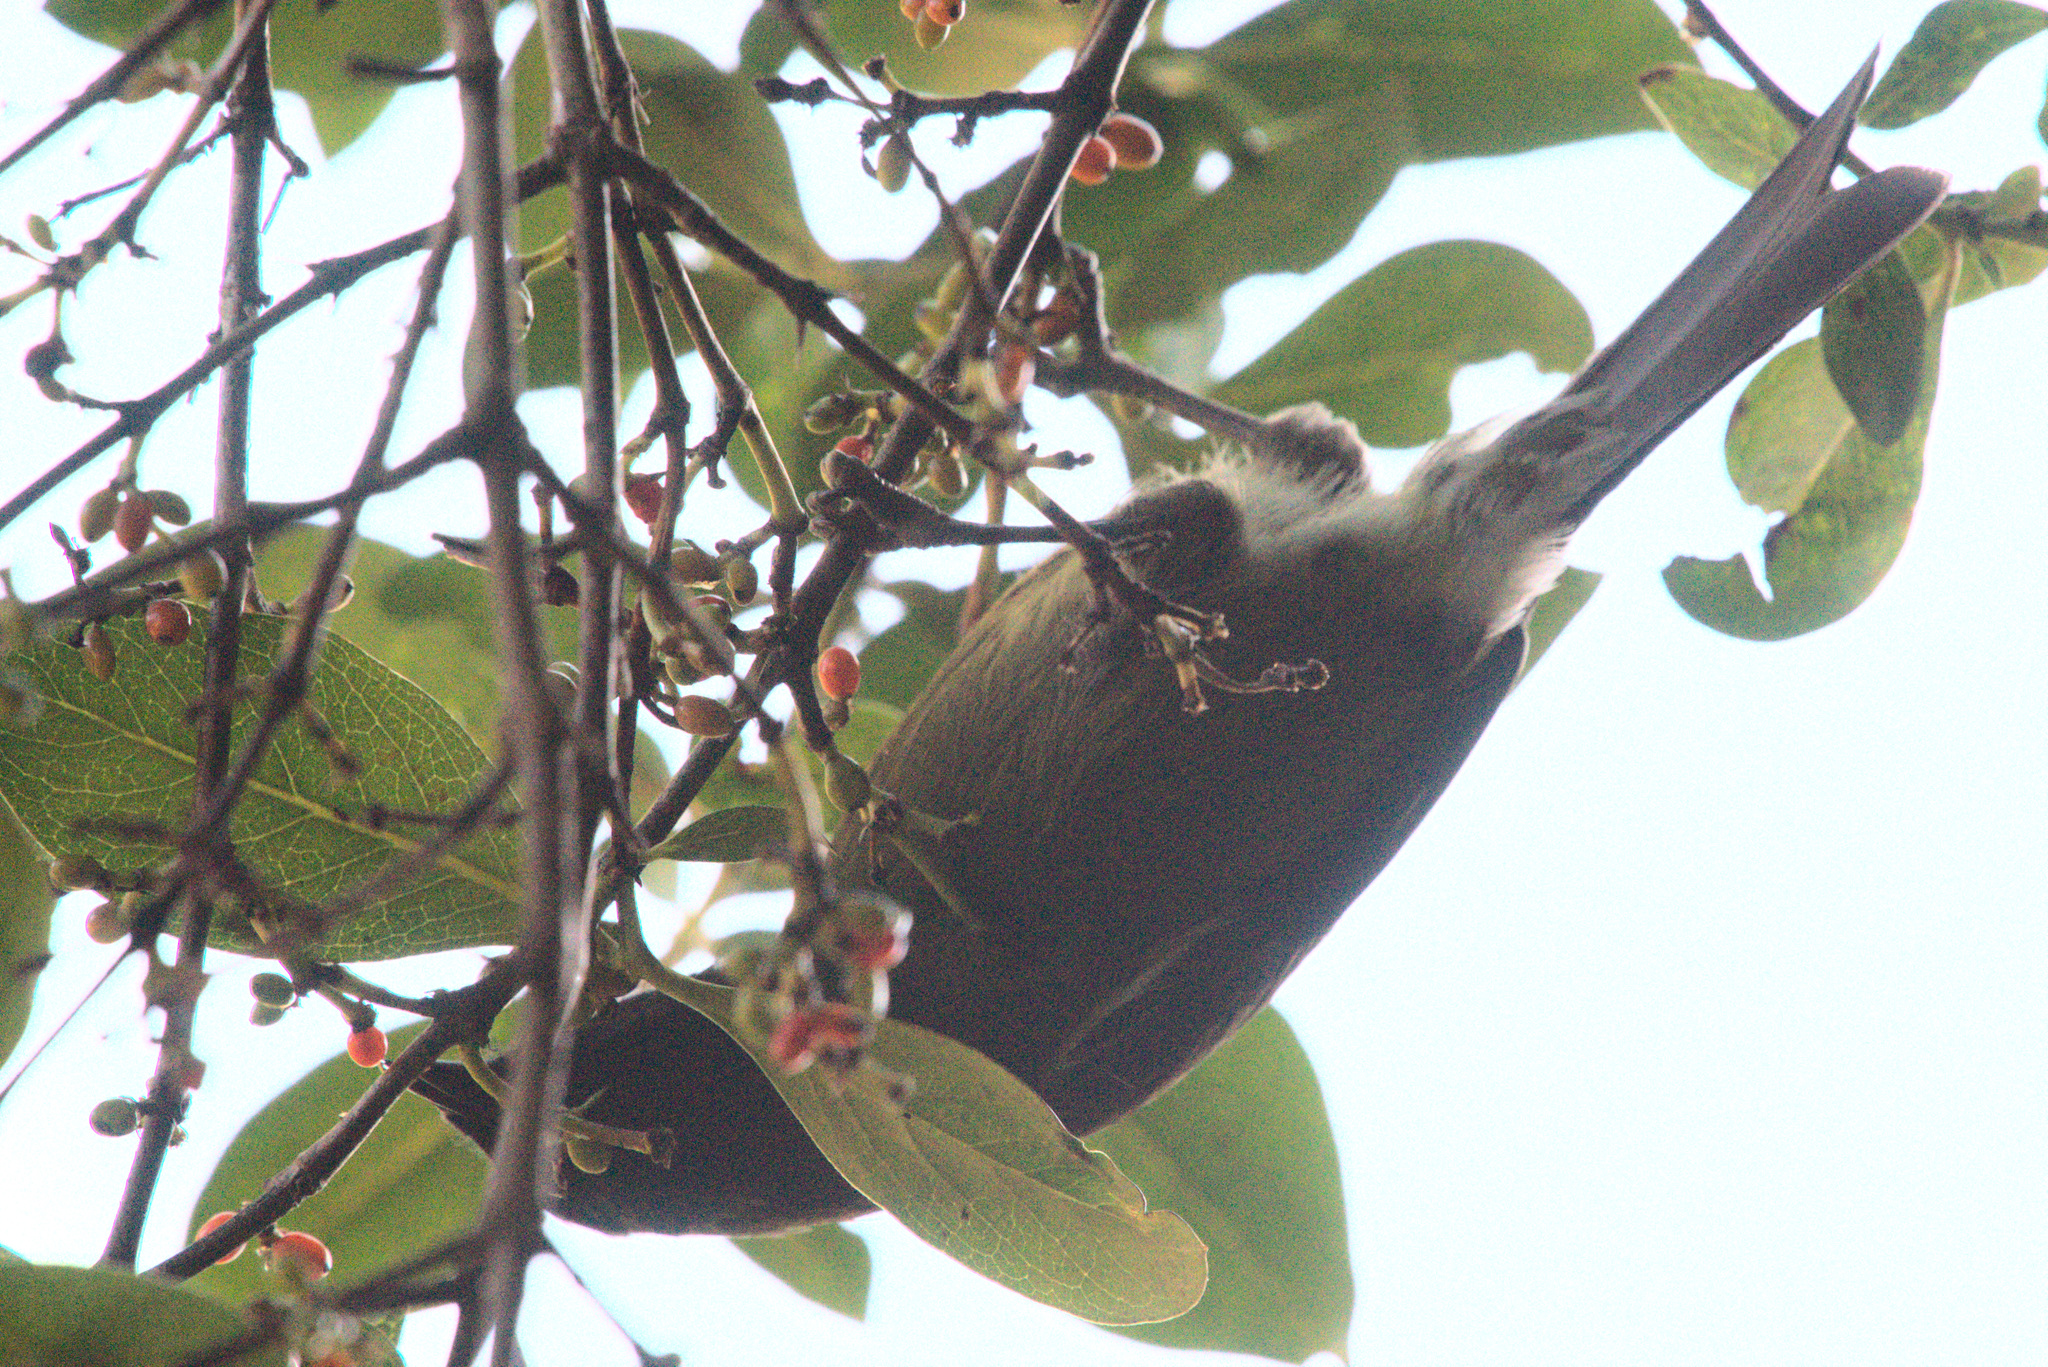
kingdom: Animalia
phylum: Chordata
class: Aves
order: Passeriformes
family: Meliphagidae
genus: Anthornis
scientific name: Anthornis melanura
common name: New zealand bellbird
